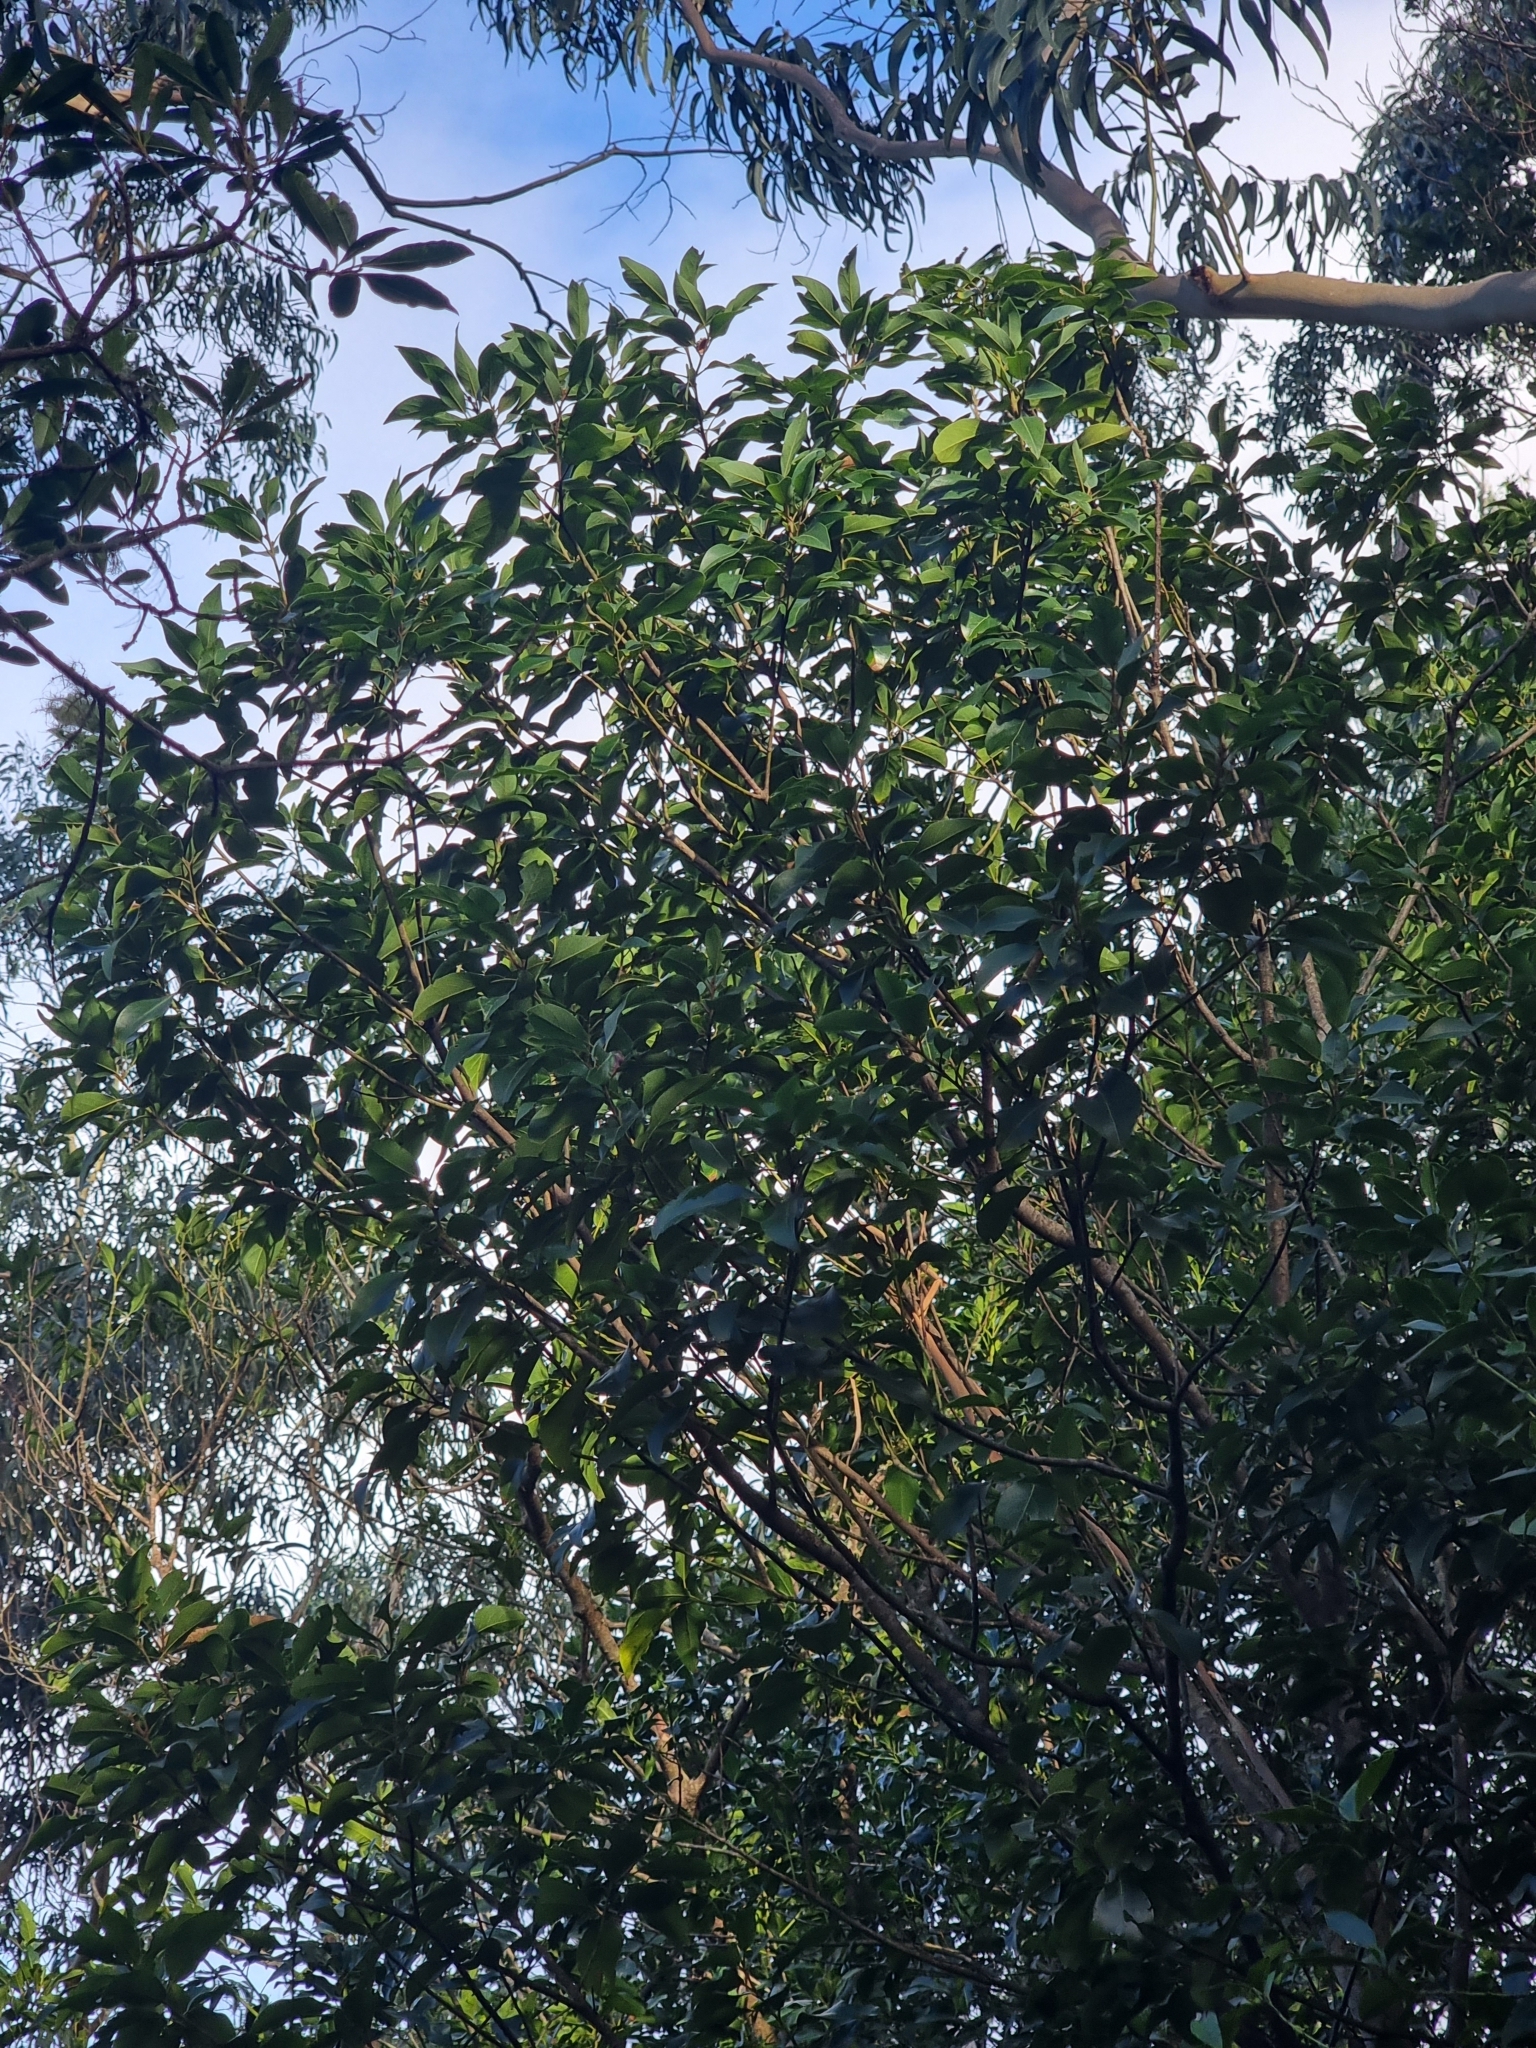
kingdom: Plantae
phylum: Tracheophyta
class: Magnoliopsida
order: Laurales
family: Lauraceae
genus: Laurus
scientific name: Laurus novocanariensis
